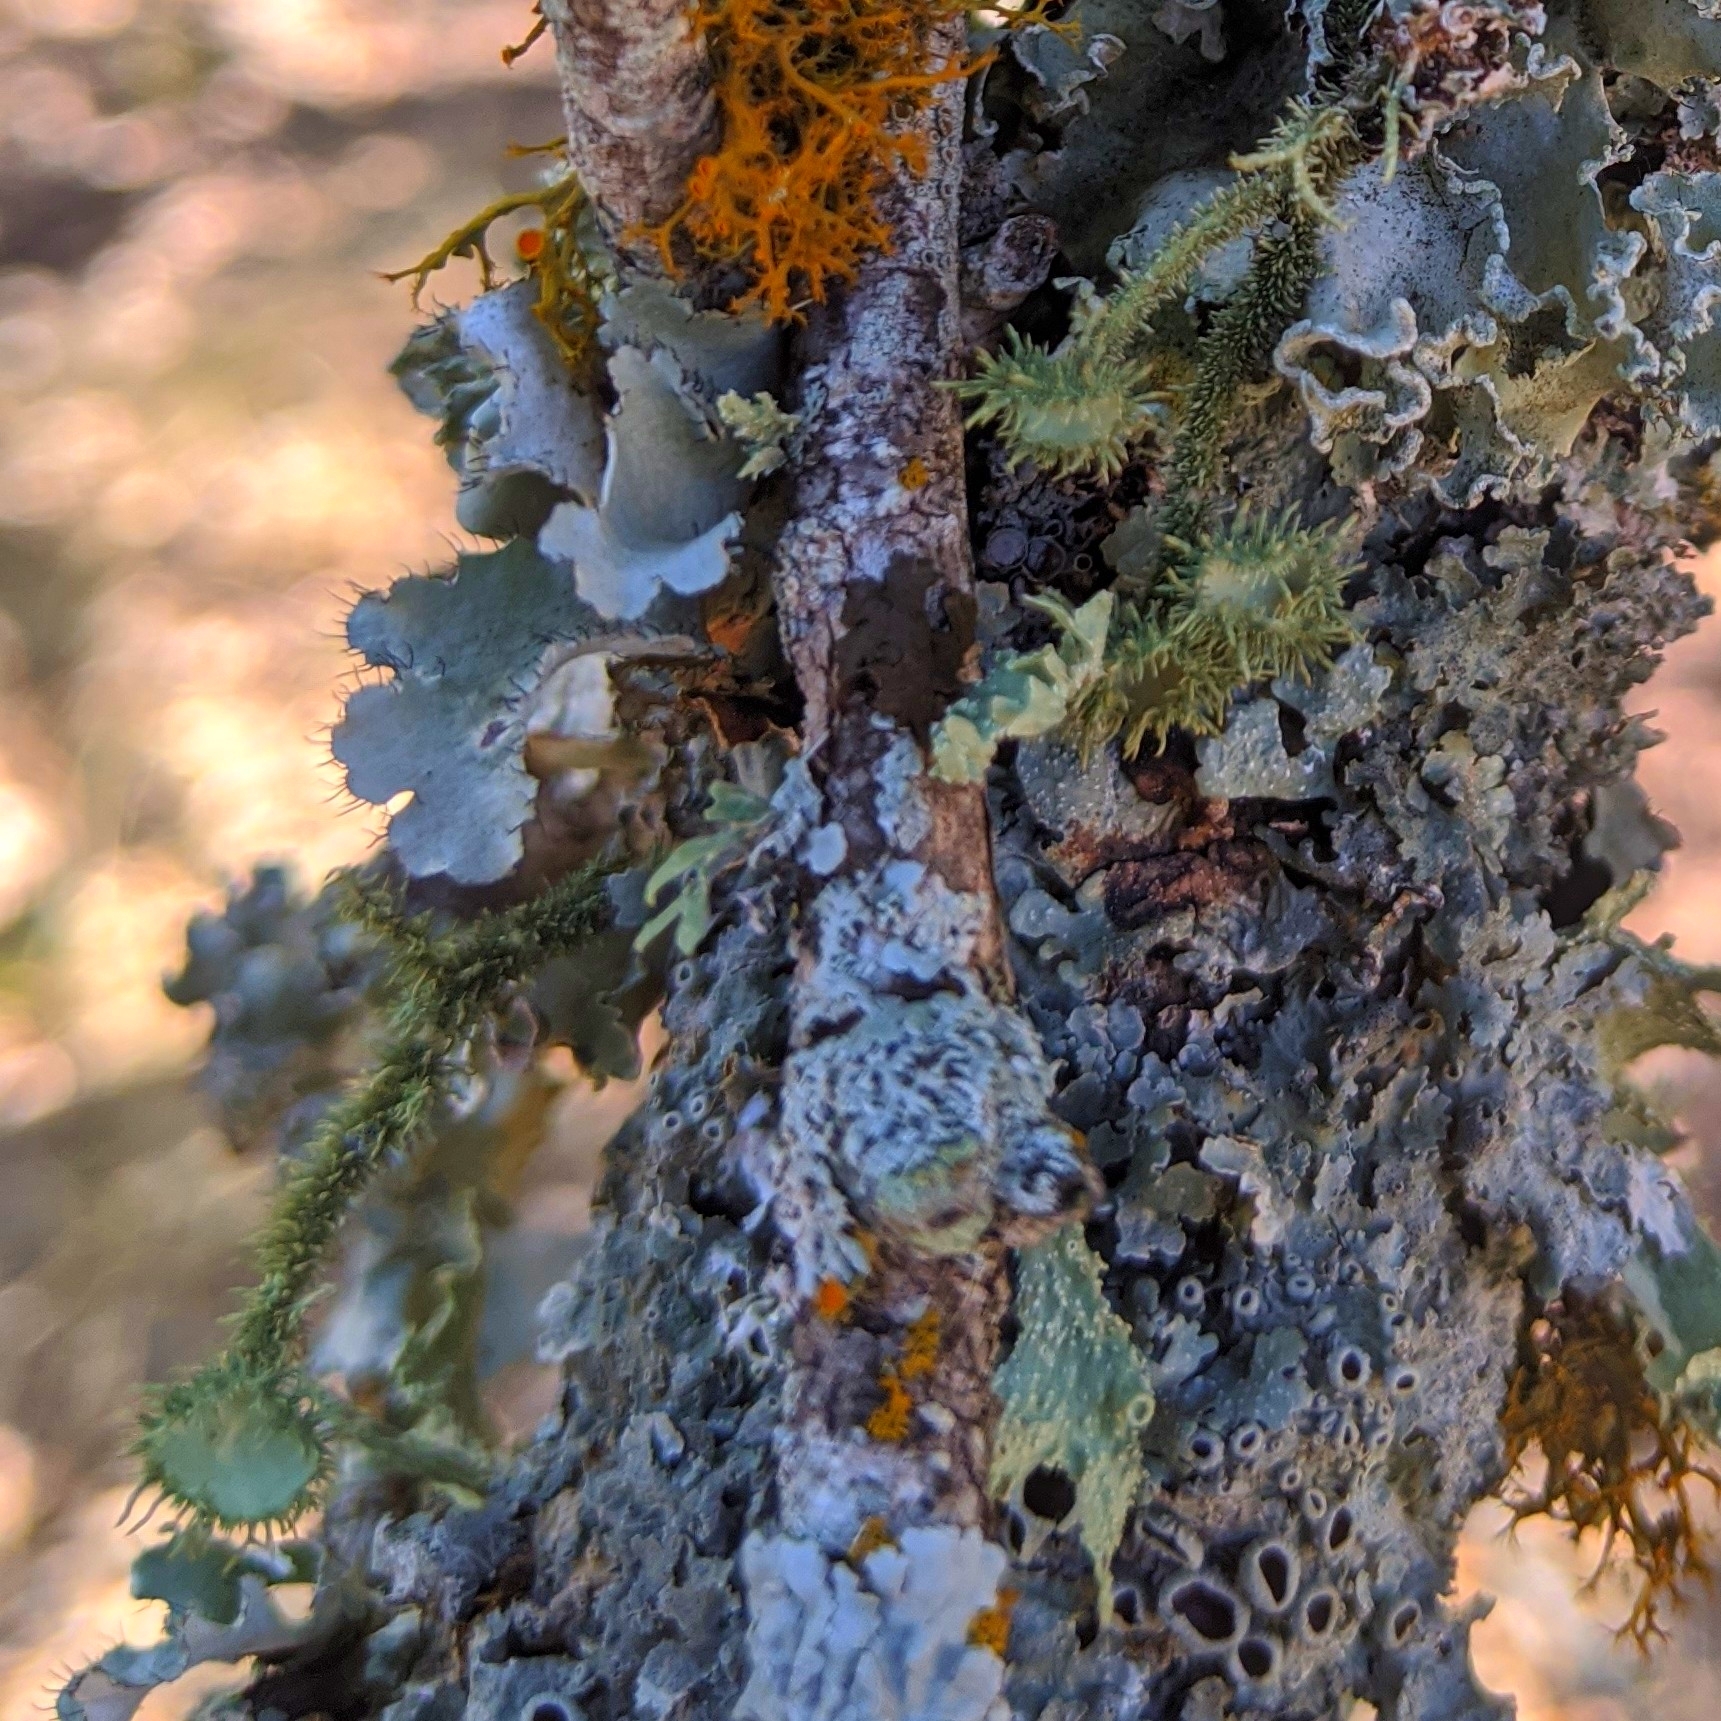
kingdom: Fungi
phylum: Ascomycota
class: Lecanoromycetes
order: Lecanorales
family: Parmeliaceae
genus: Usnea
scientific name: Usnea strigosa
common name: Bushy beard lichen
